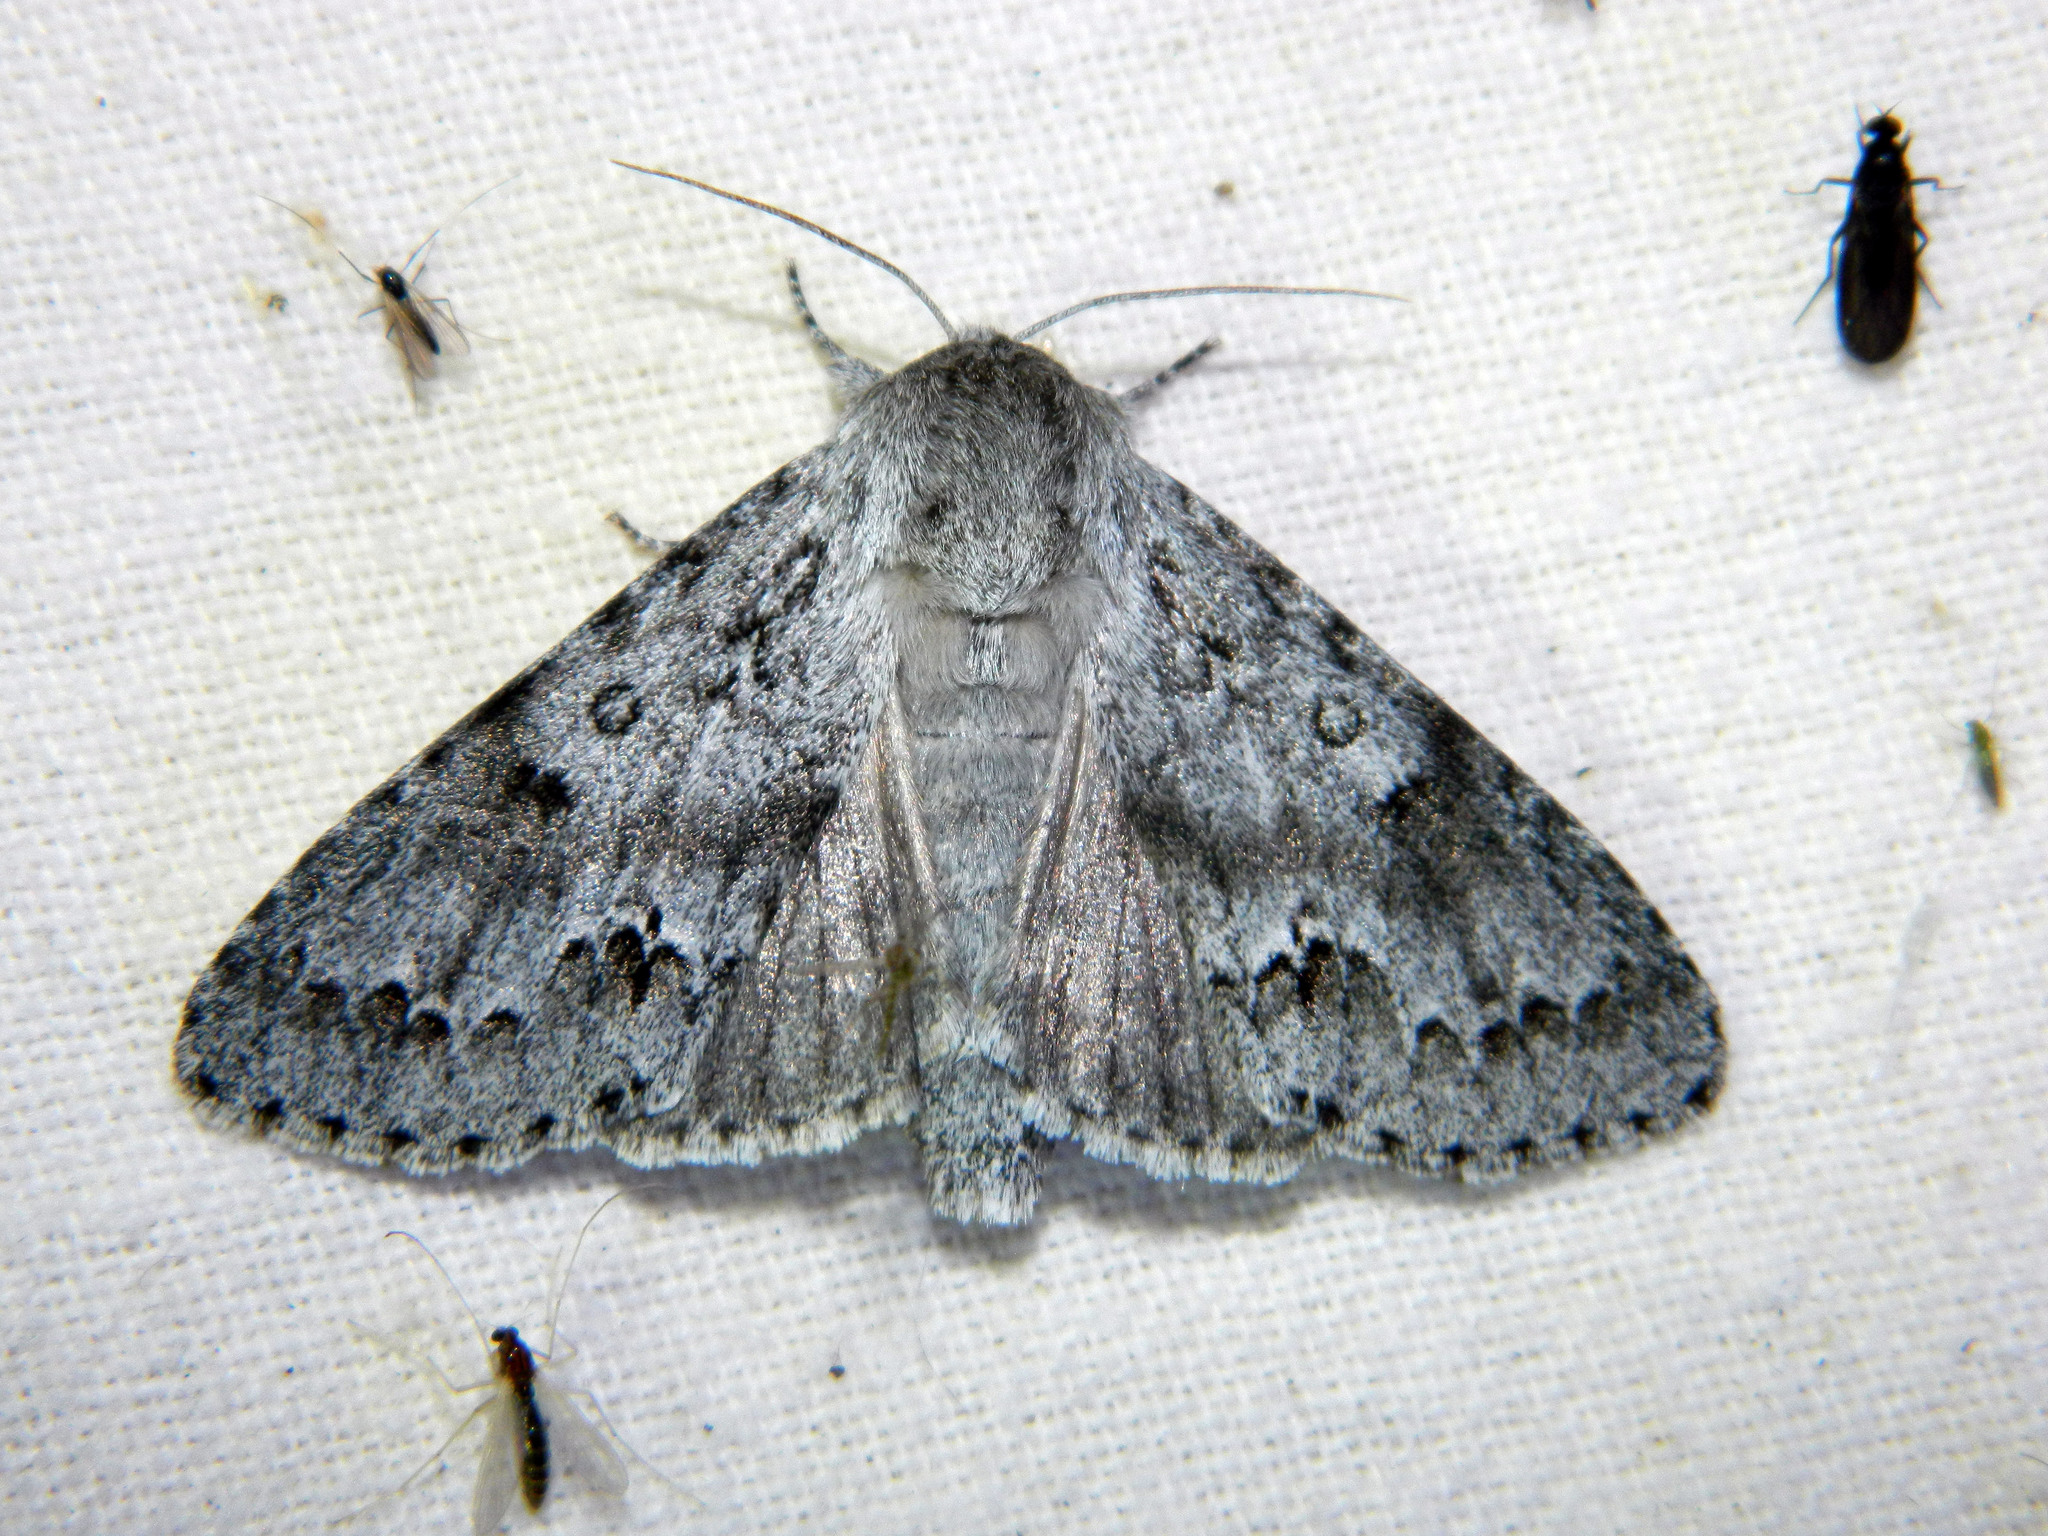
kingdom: Animalia
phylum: Arthropoda
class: Insecta
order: Lepidoptera
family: Noctuidae
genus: Acronicta
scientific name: Acronicta insita
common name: Large gray dagger
